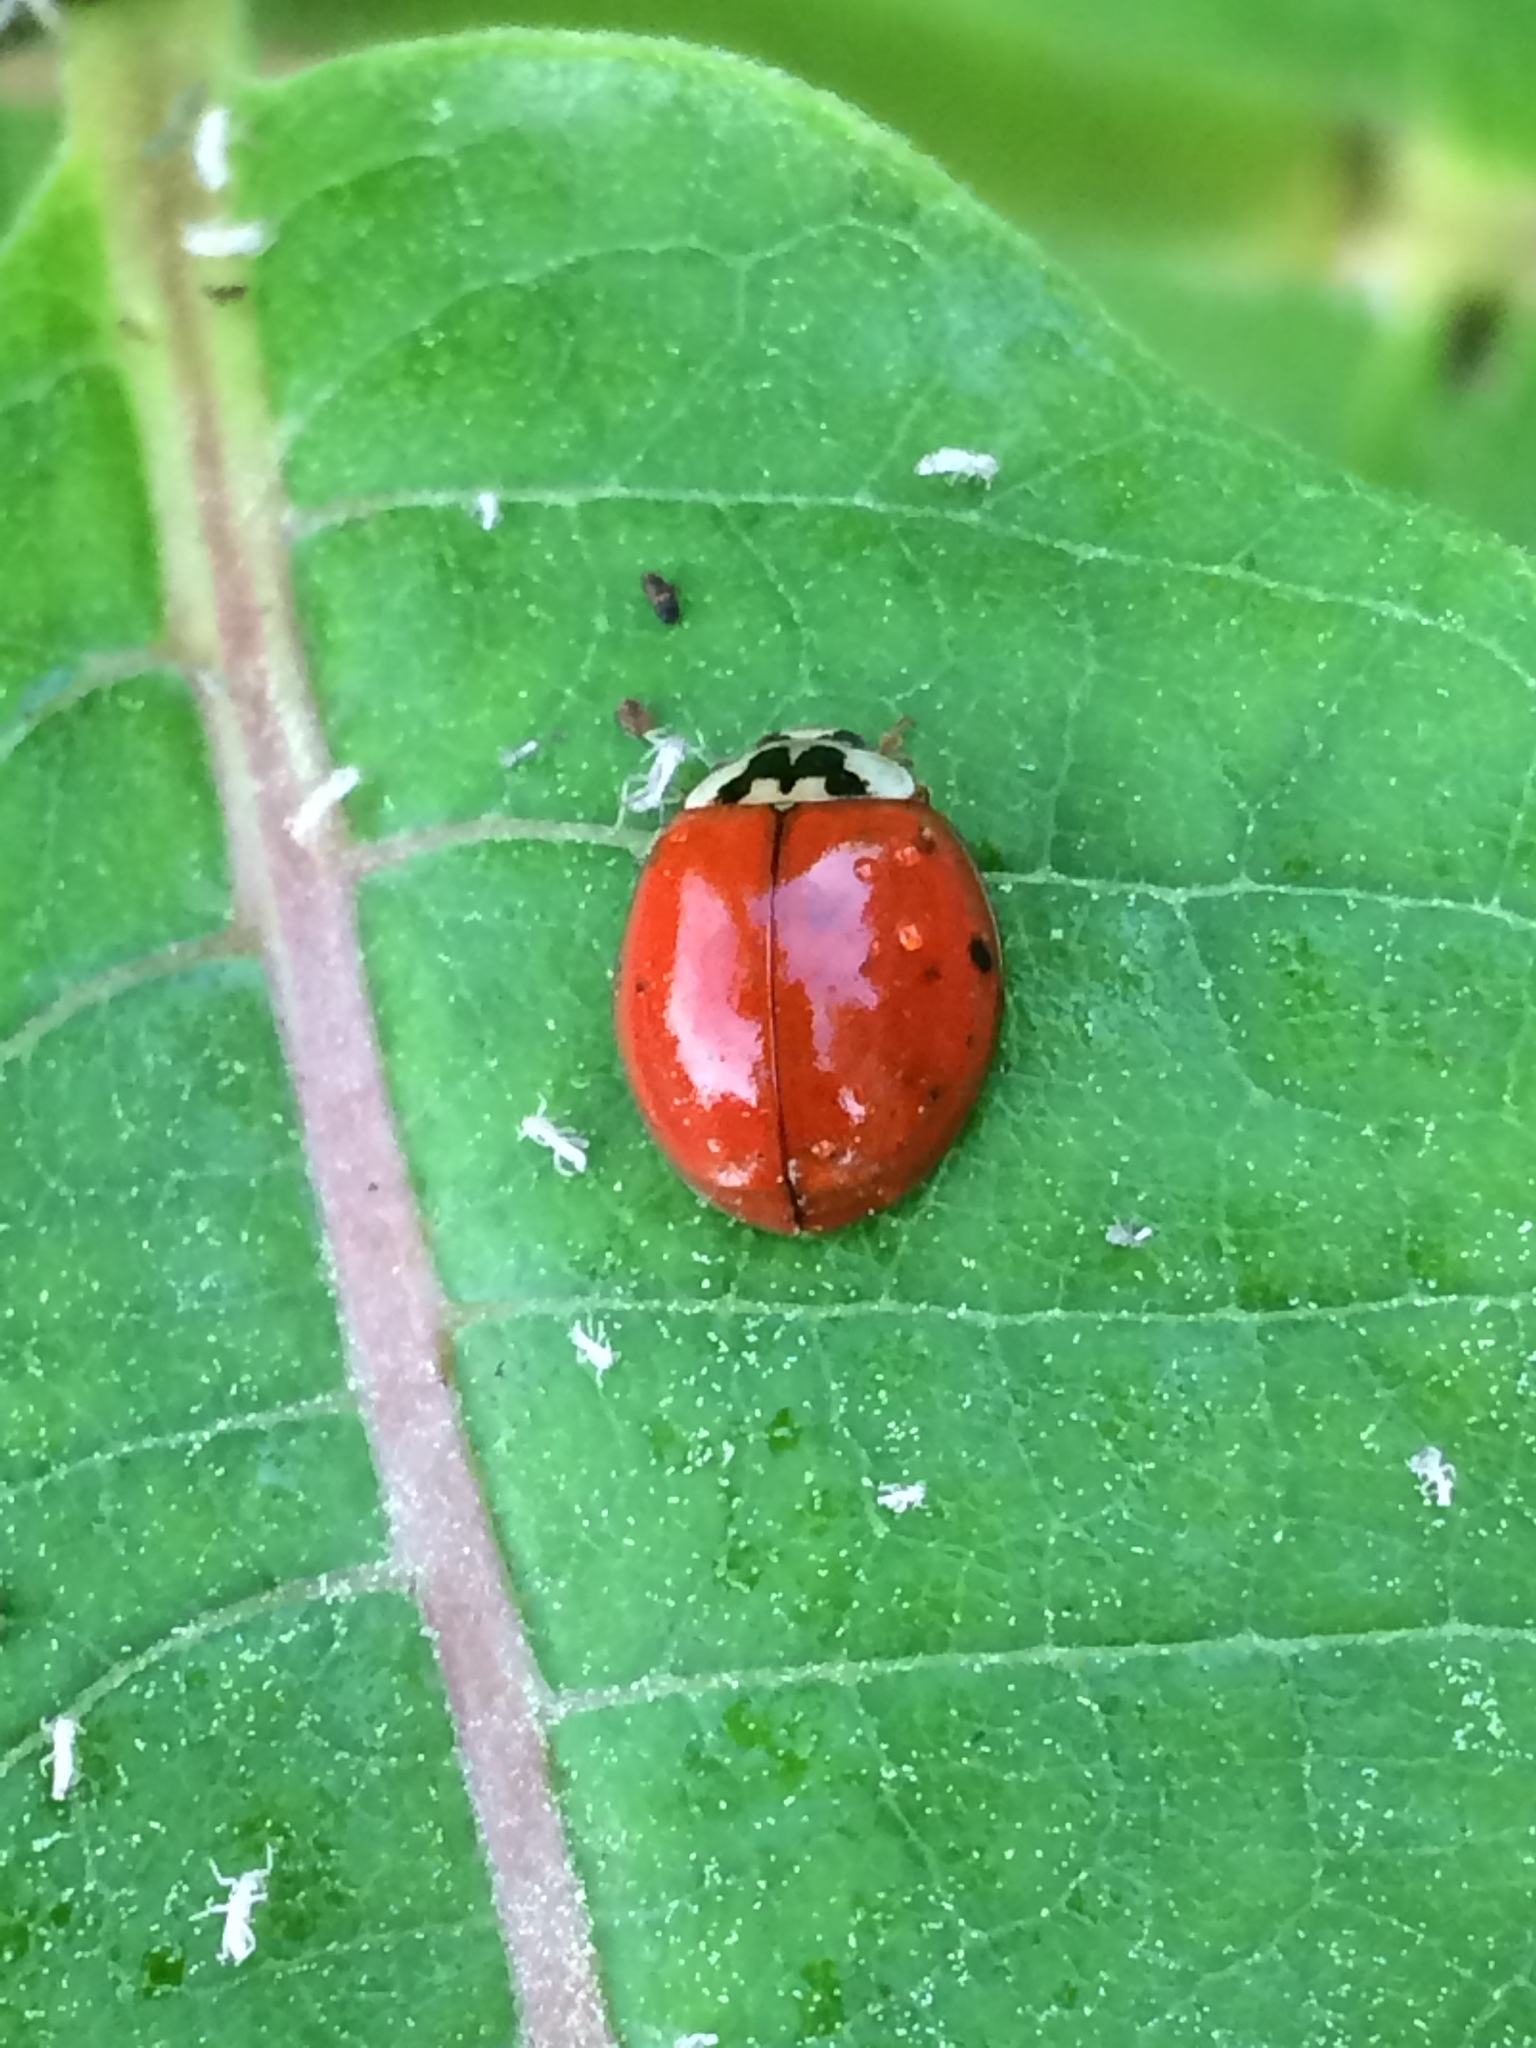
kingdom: Animalia
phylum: Arthropoda
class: Insecta
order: Coleoptera
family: Coccinellidae
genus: Harmonia
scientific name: Harmonia axyridis
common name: Harlequin ladybird
